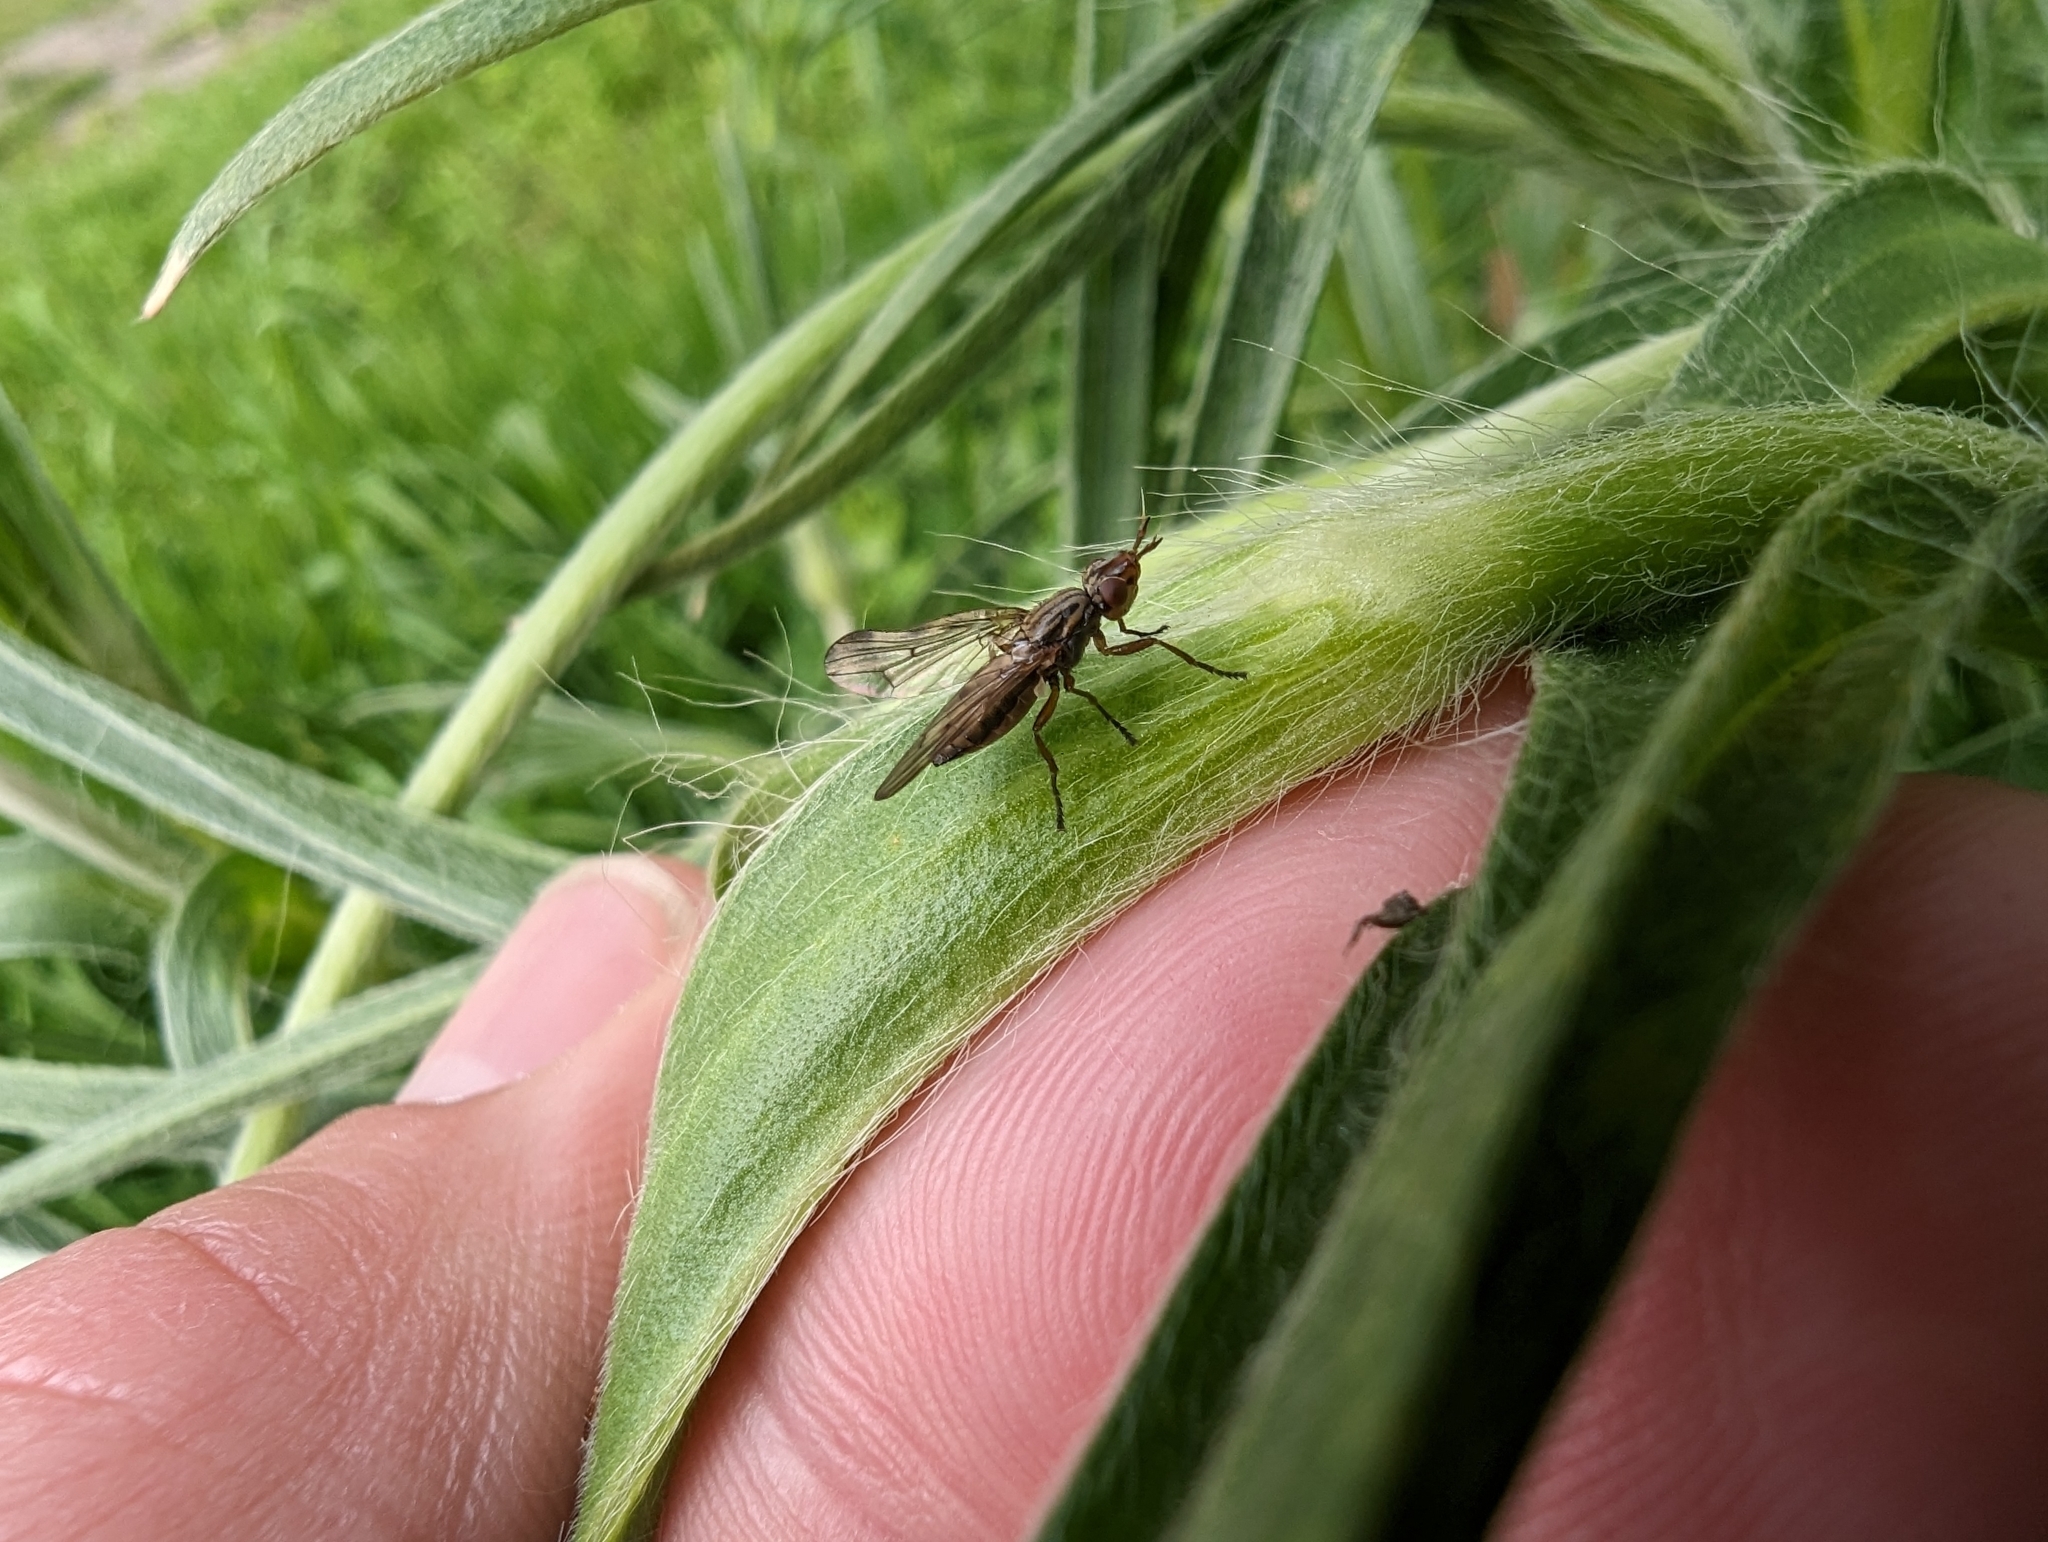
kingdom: Animalia
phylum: Arthropoda
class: Insecta
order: Diptera
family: Ulidiidae
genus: Dorycera
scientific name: Dorycera aquatica
